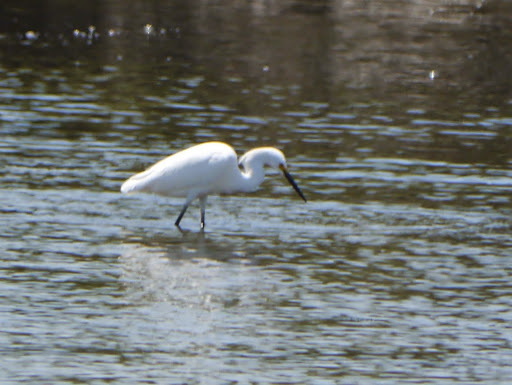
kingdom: Animalia
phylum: Chordata
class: Aves
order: Pelecaniformes
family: Ardeidae
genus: Egretta
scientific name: Egretta thula
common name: Snowy egret
